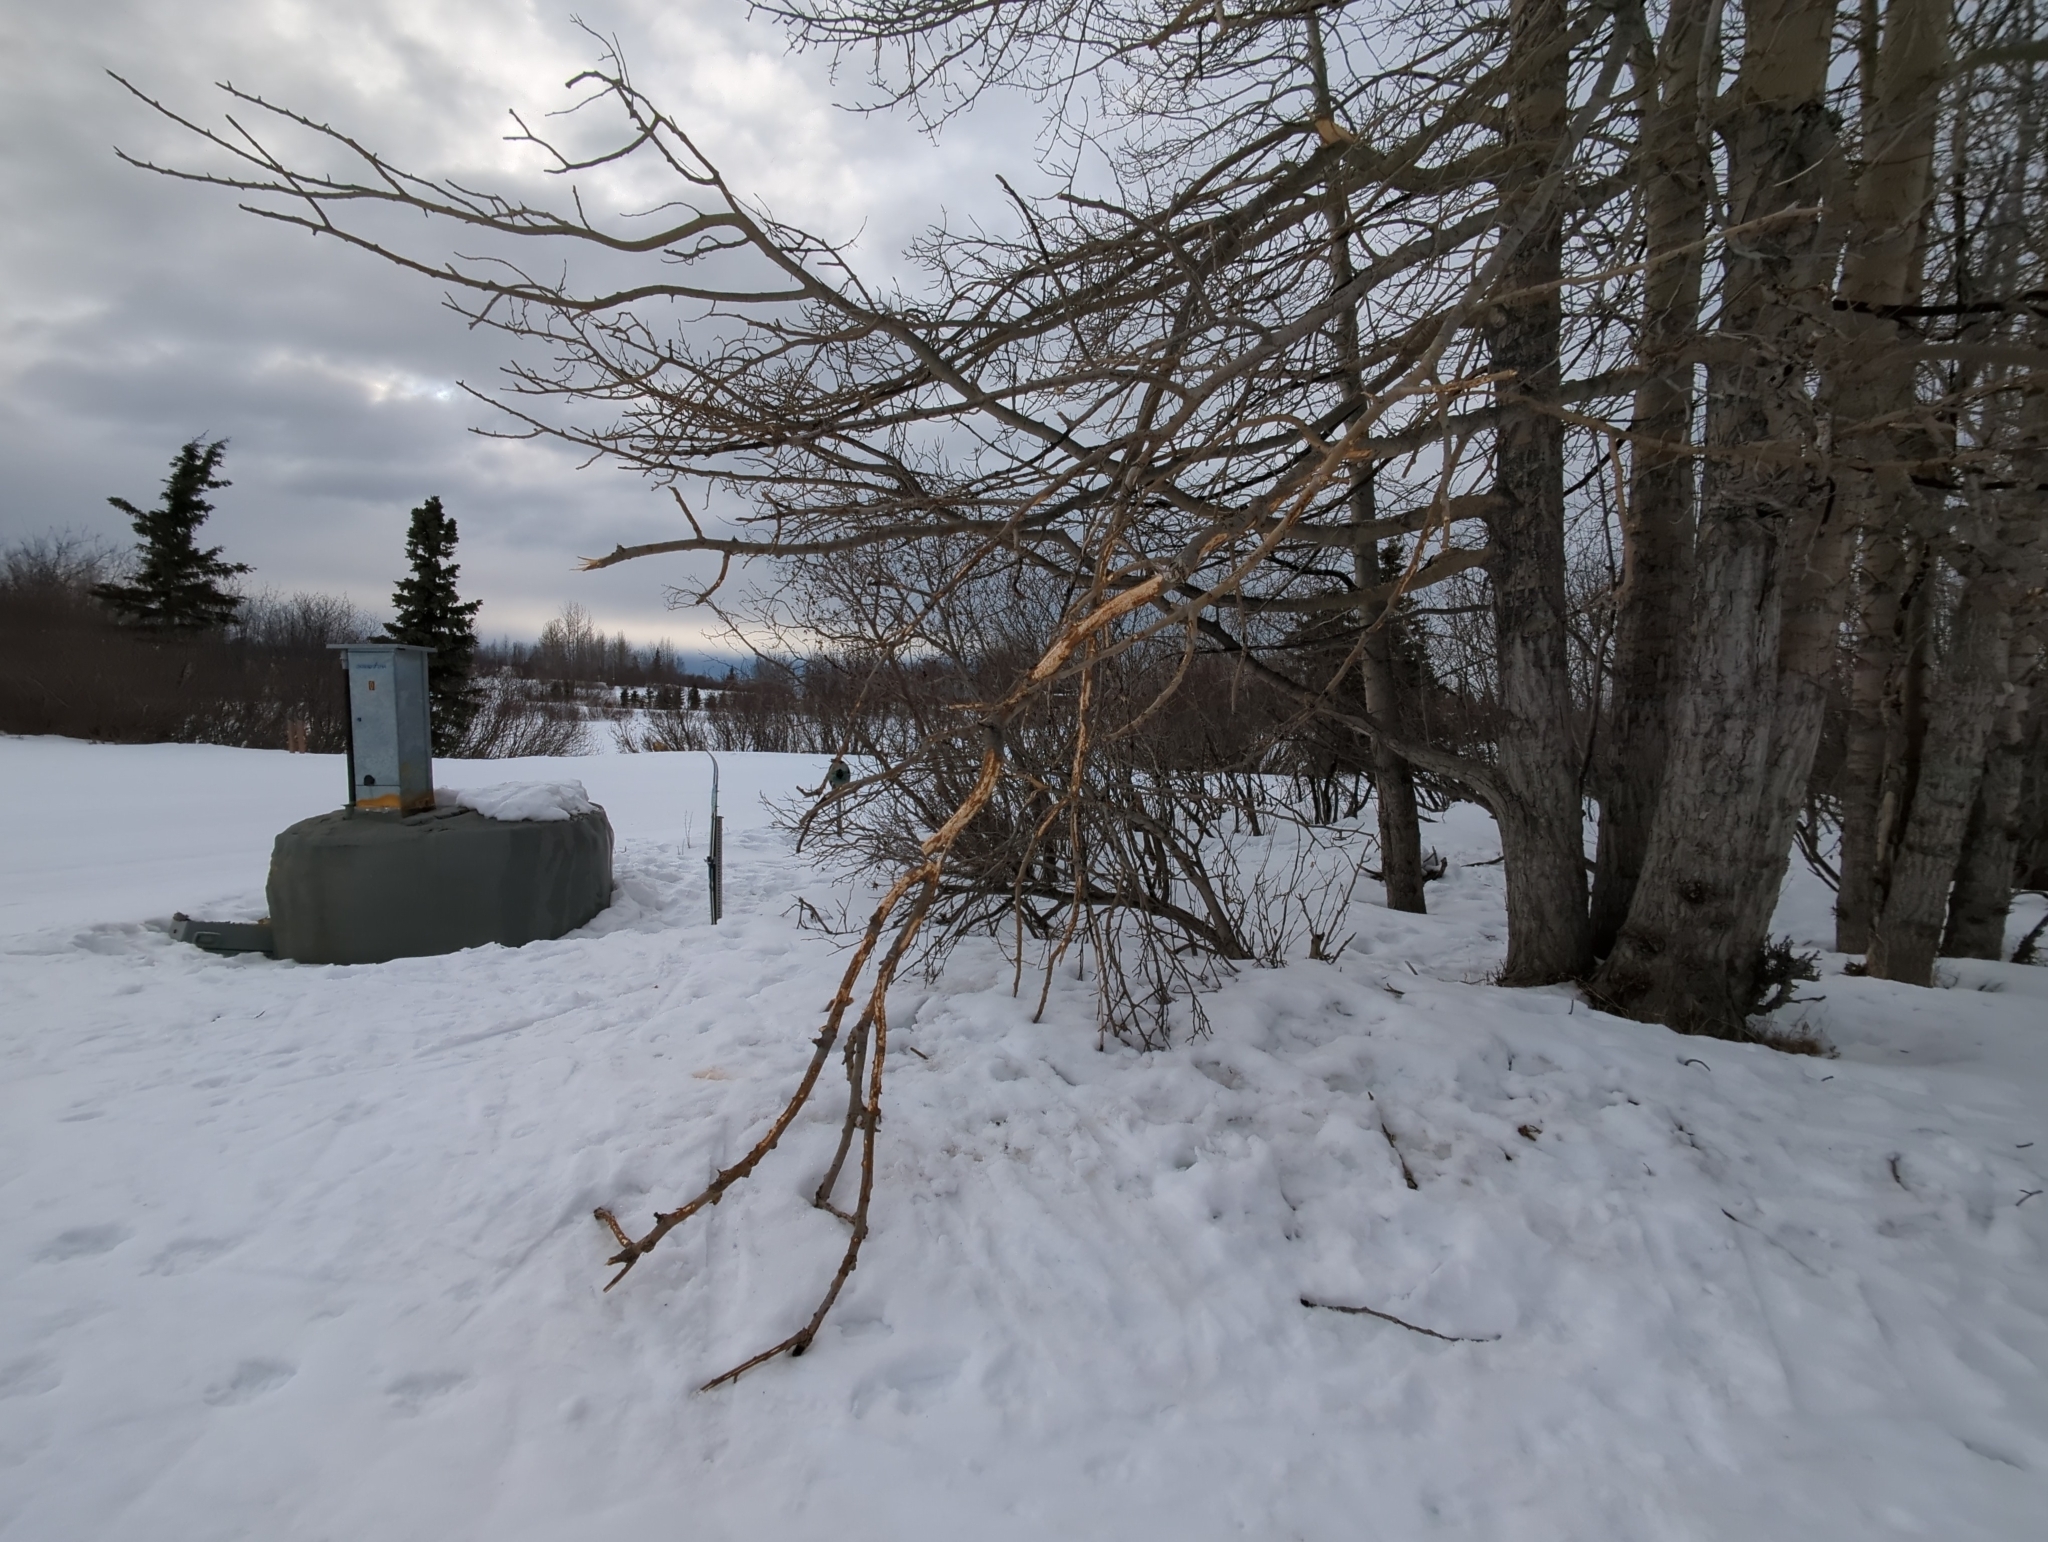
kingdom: Animalia
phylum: Chordata
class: Mammalia
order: Artiodactyla
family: Cervidae
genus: Alces
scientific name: Alces alces
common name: Moose
